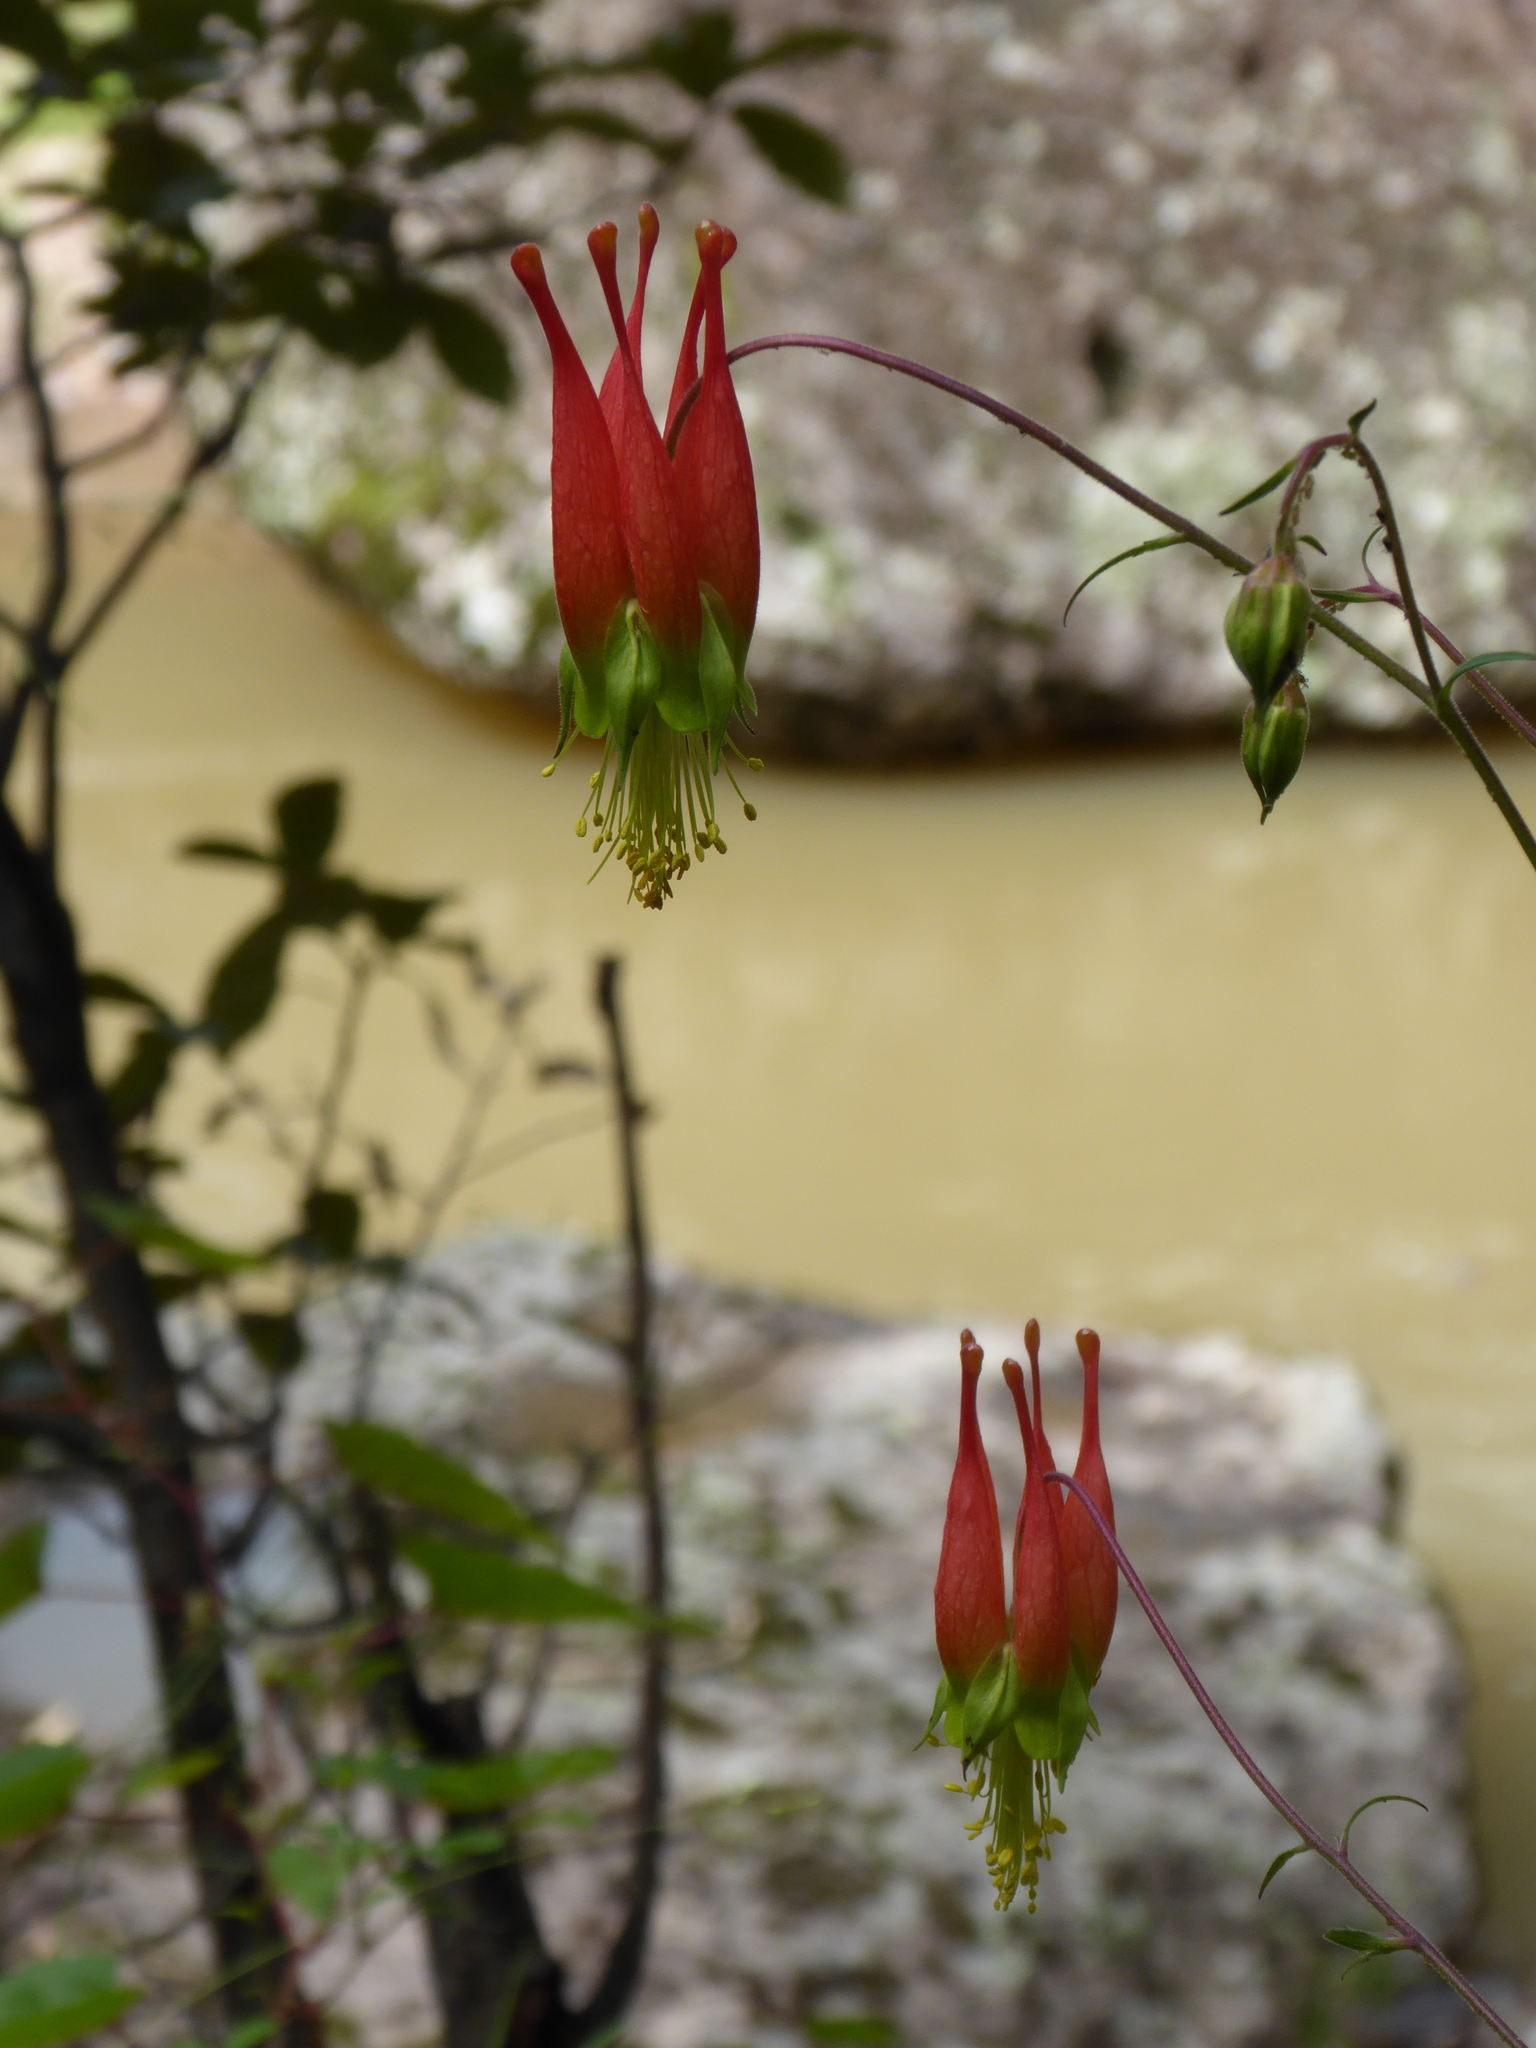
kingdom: Plantae
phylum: Tracheophyta
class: Magnoliopsida
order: Ranunculales
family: Ranunculaceae
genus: Aquilegia
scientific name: Aquilegia skinneri
